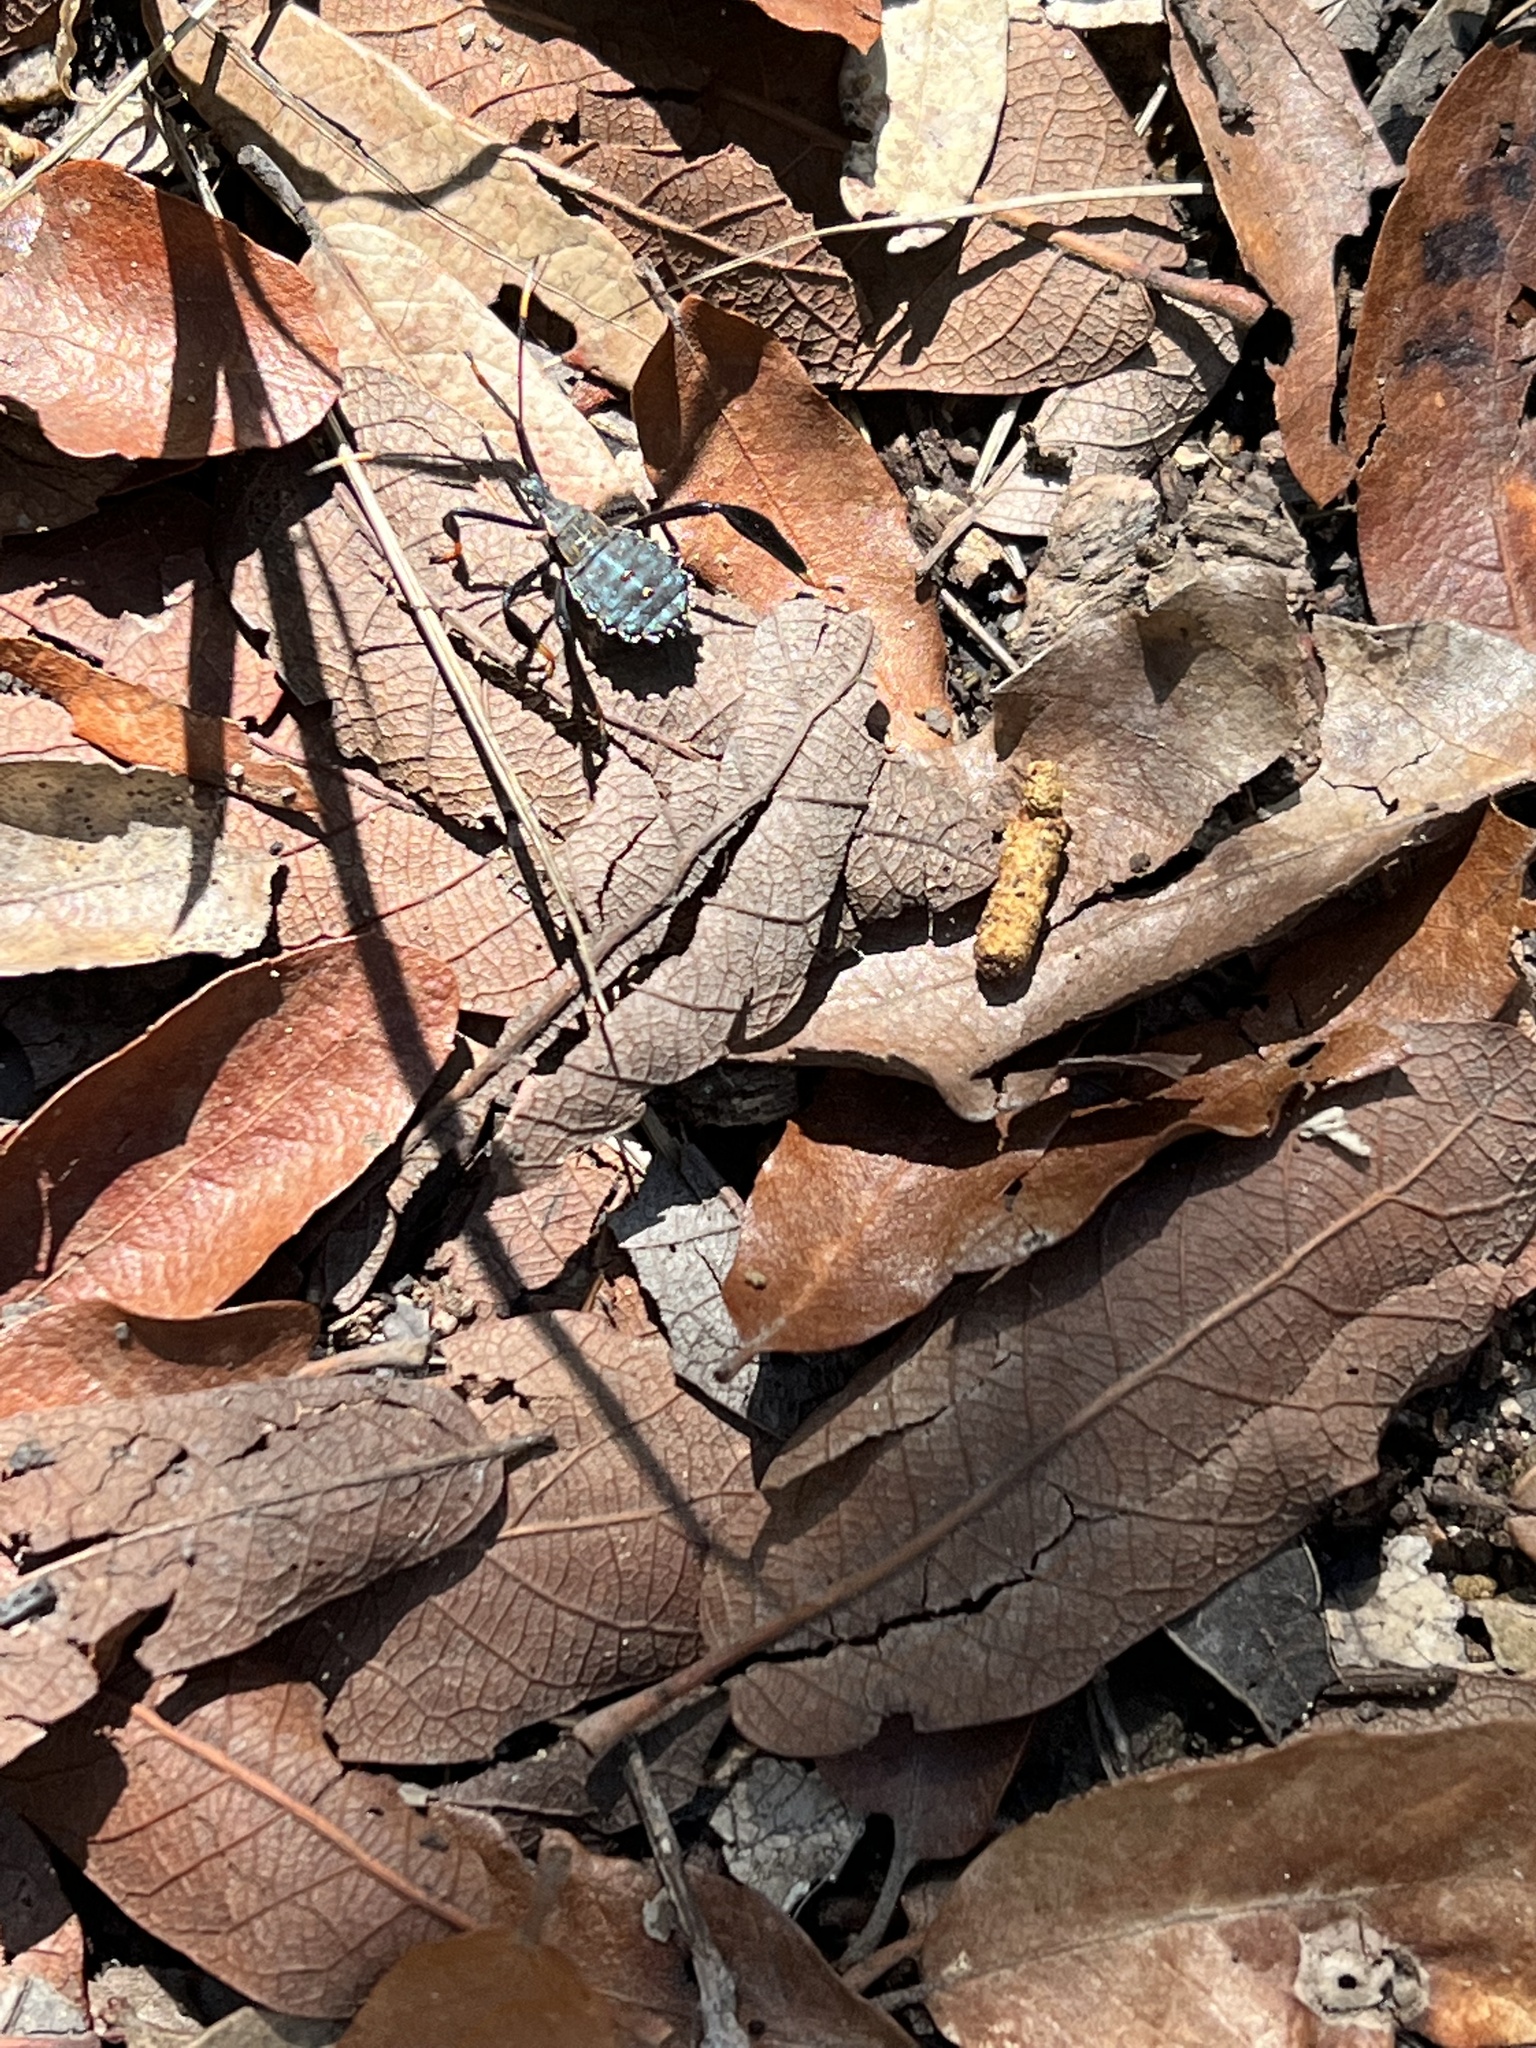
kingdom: Animalia
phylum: Arthropoda
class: Insecta
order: Hemiptera
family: Coreidae
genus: Acanthocephala
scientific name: Acanthocephala thomasi
